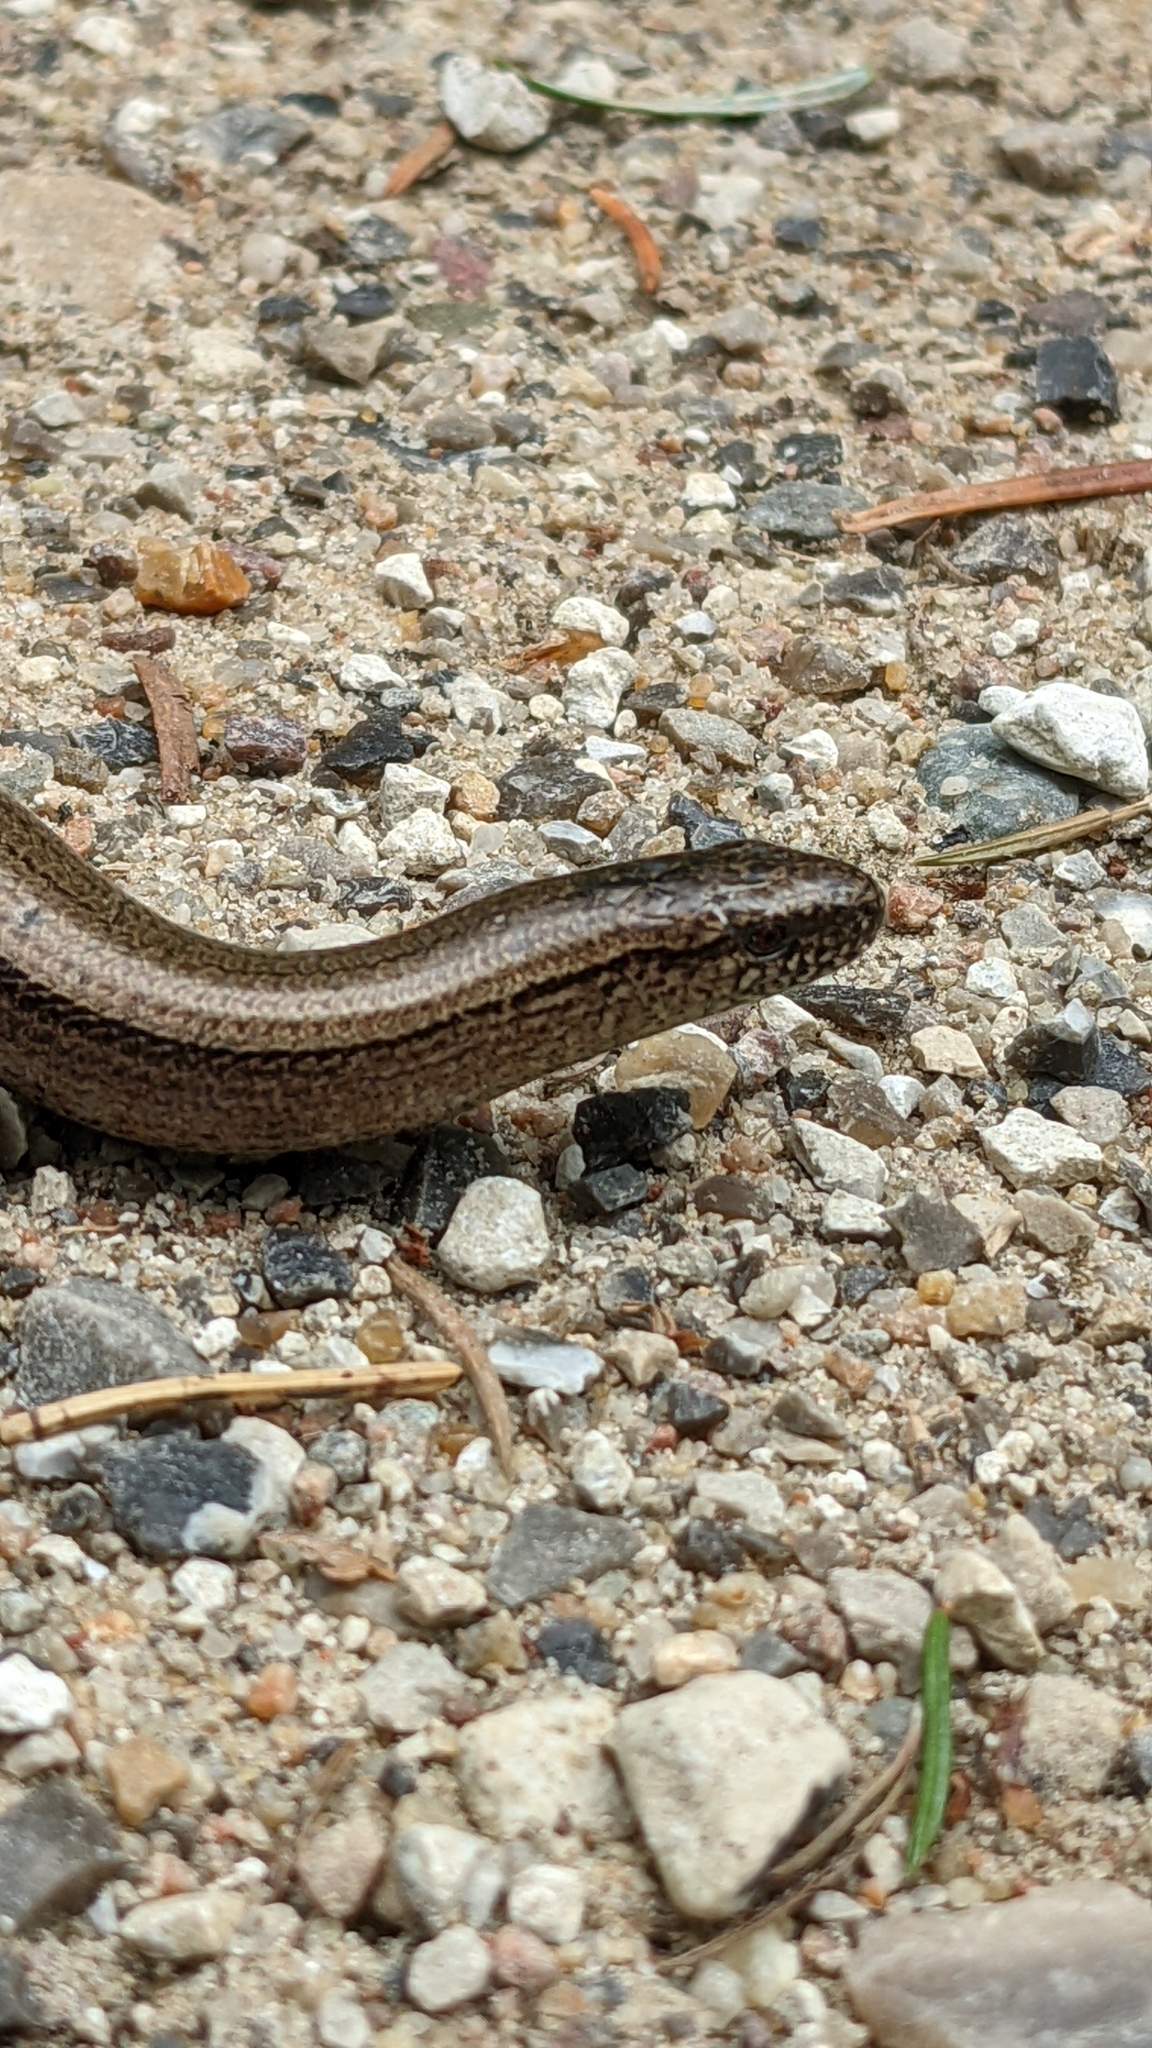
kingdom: Animalia
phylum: Chordata
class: Squamata
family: Anguidae
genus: Anguis
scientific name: Anguis fragilis
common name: Slow worm
